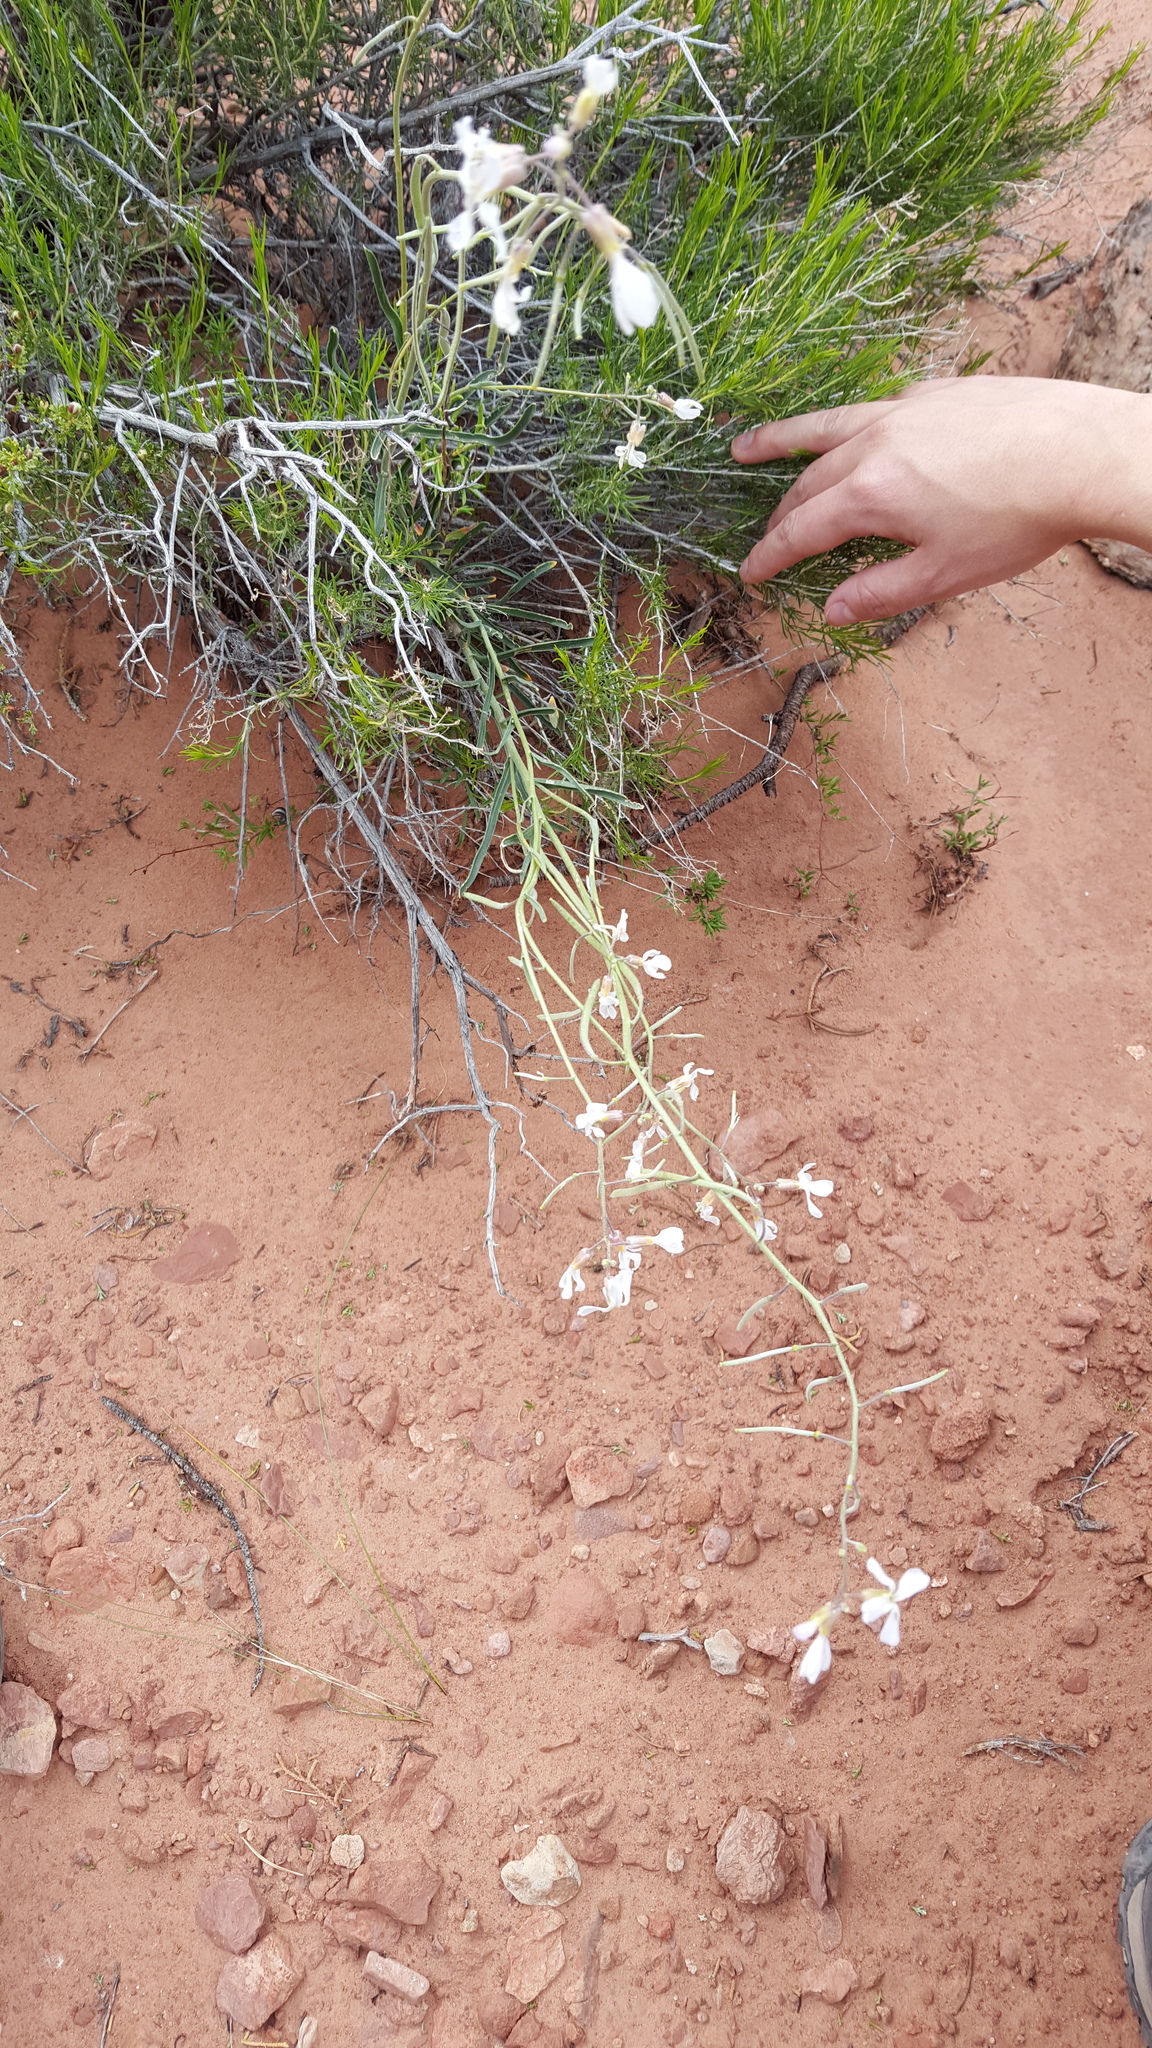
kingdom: Plantae
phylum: Tracheophyta
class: Magnoliopsida
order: Brassicales
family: Brassicaceae
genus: Boechera
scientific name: Boechera formosa
